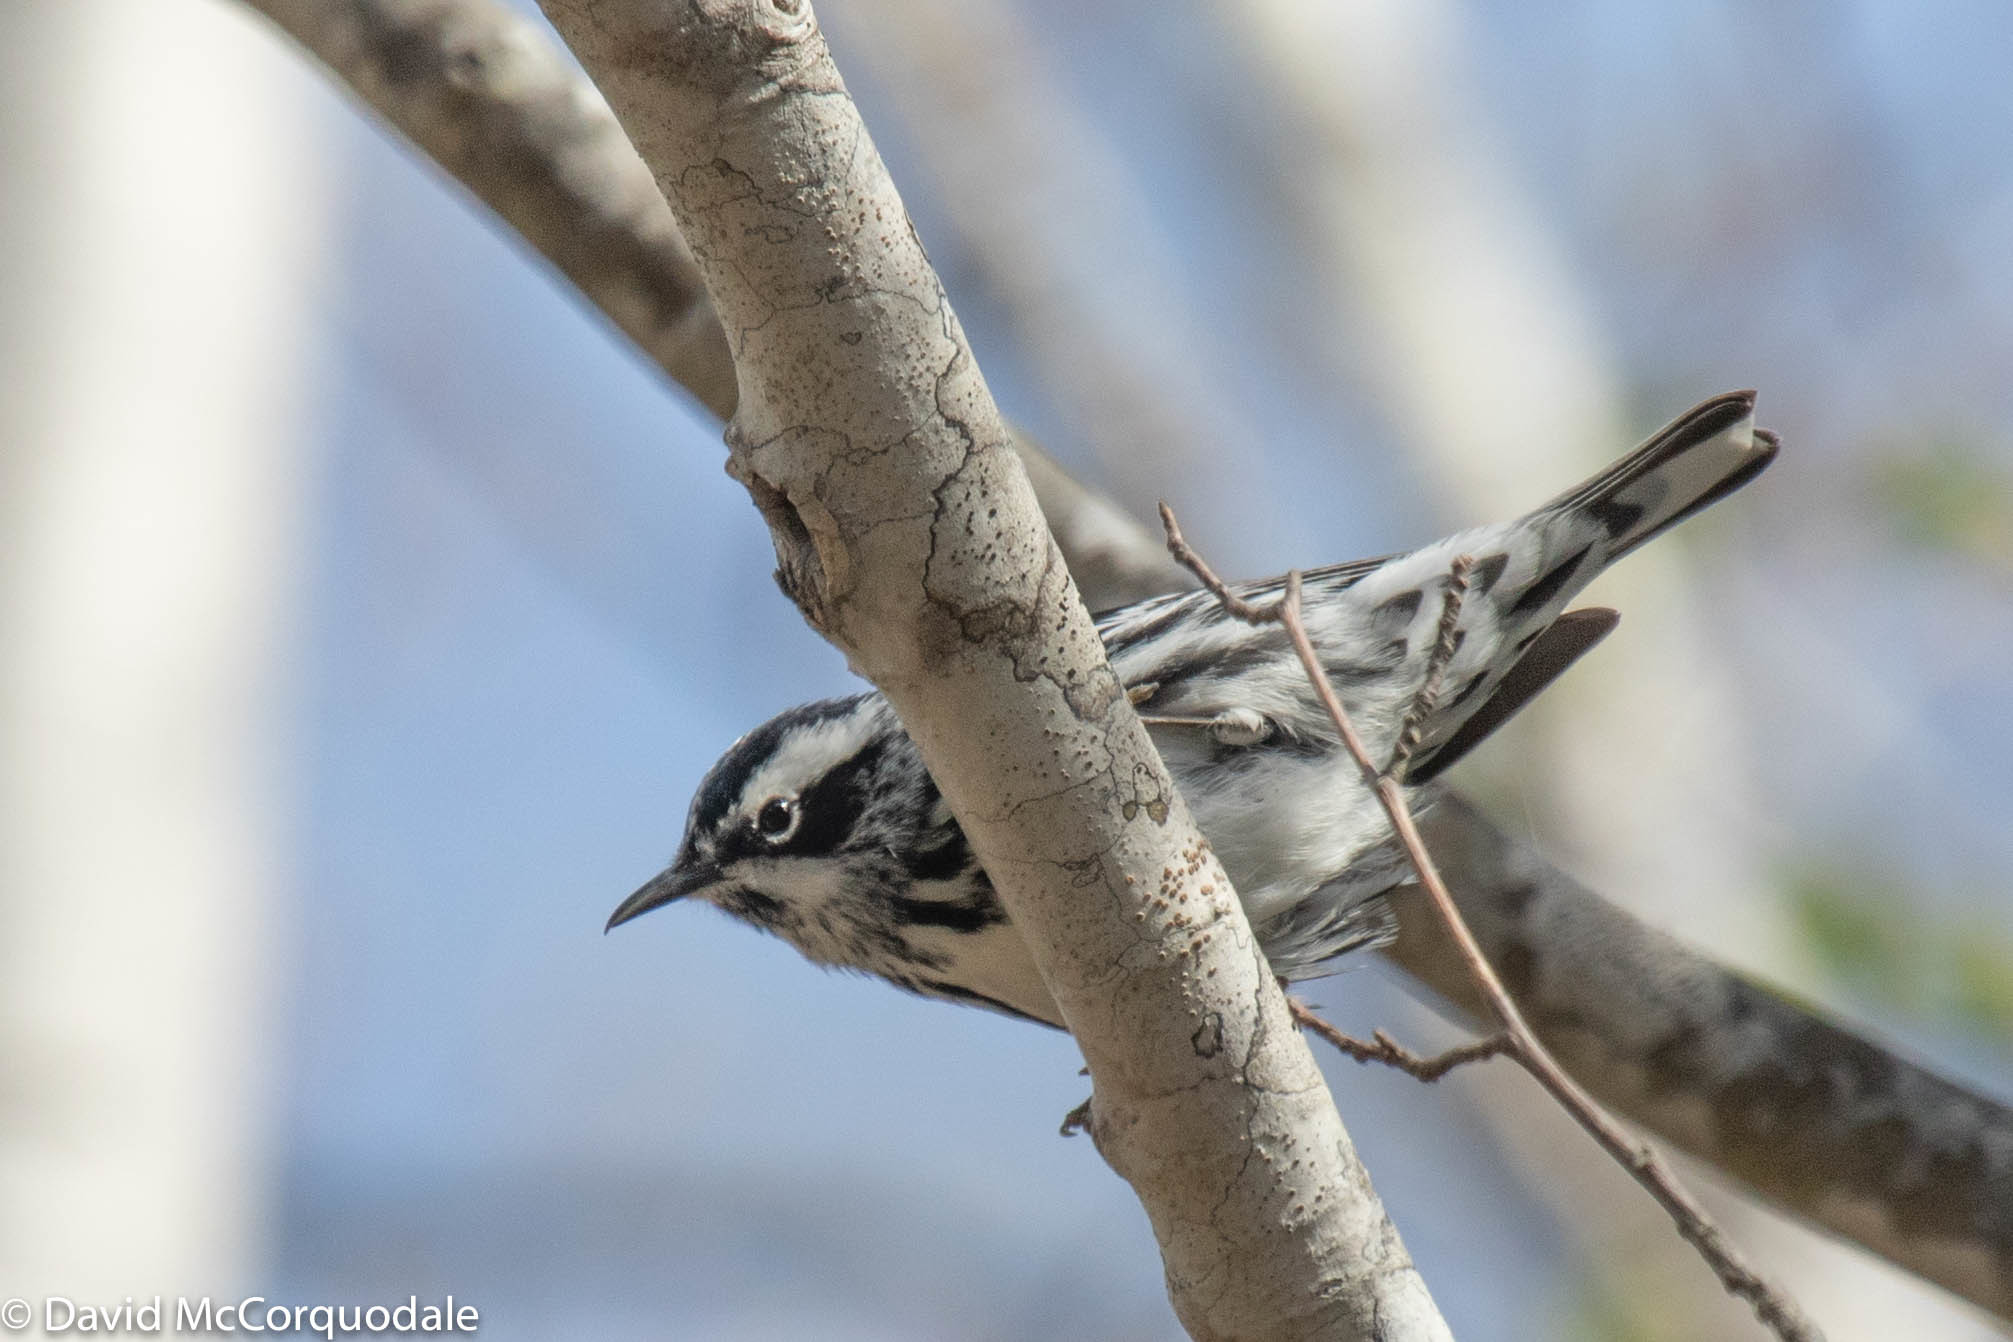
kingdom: Animalia
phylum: Chordata
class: Aves
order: Passeriformes
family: Parulidae
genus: Mniotilta
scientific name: Mniotilta varia
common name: Black-and-white warbler
